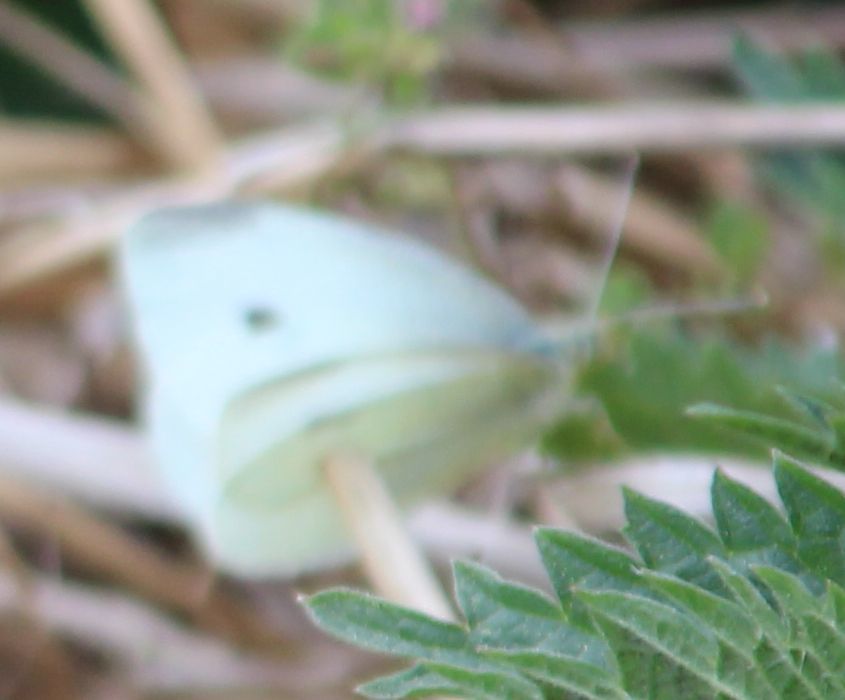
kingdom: Animalia
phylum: Arthropoda
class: Insecta
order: Lepidoptera
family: Pieridae
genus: Pieris
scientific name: Pieris rapae
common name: Small white
